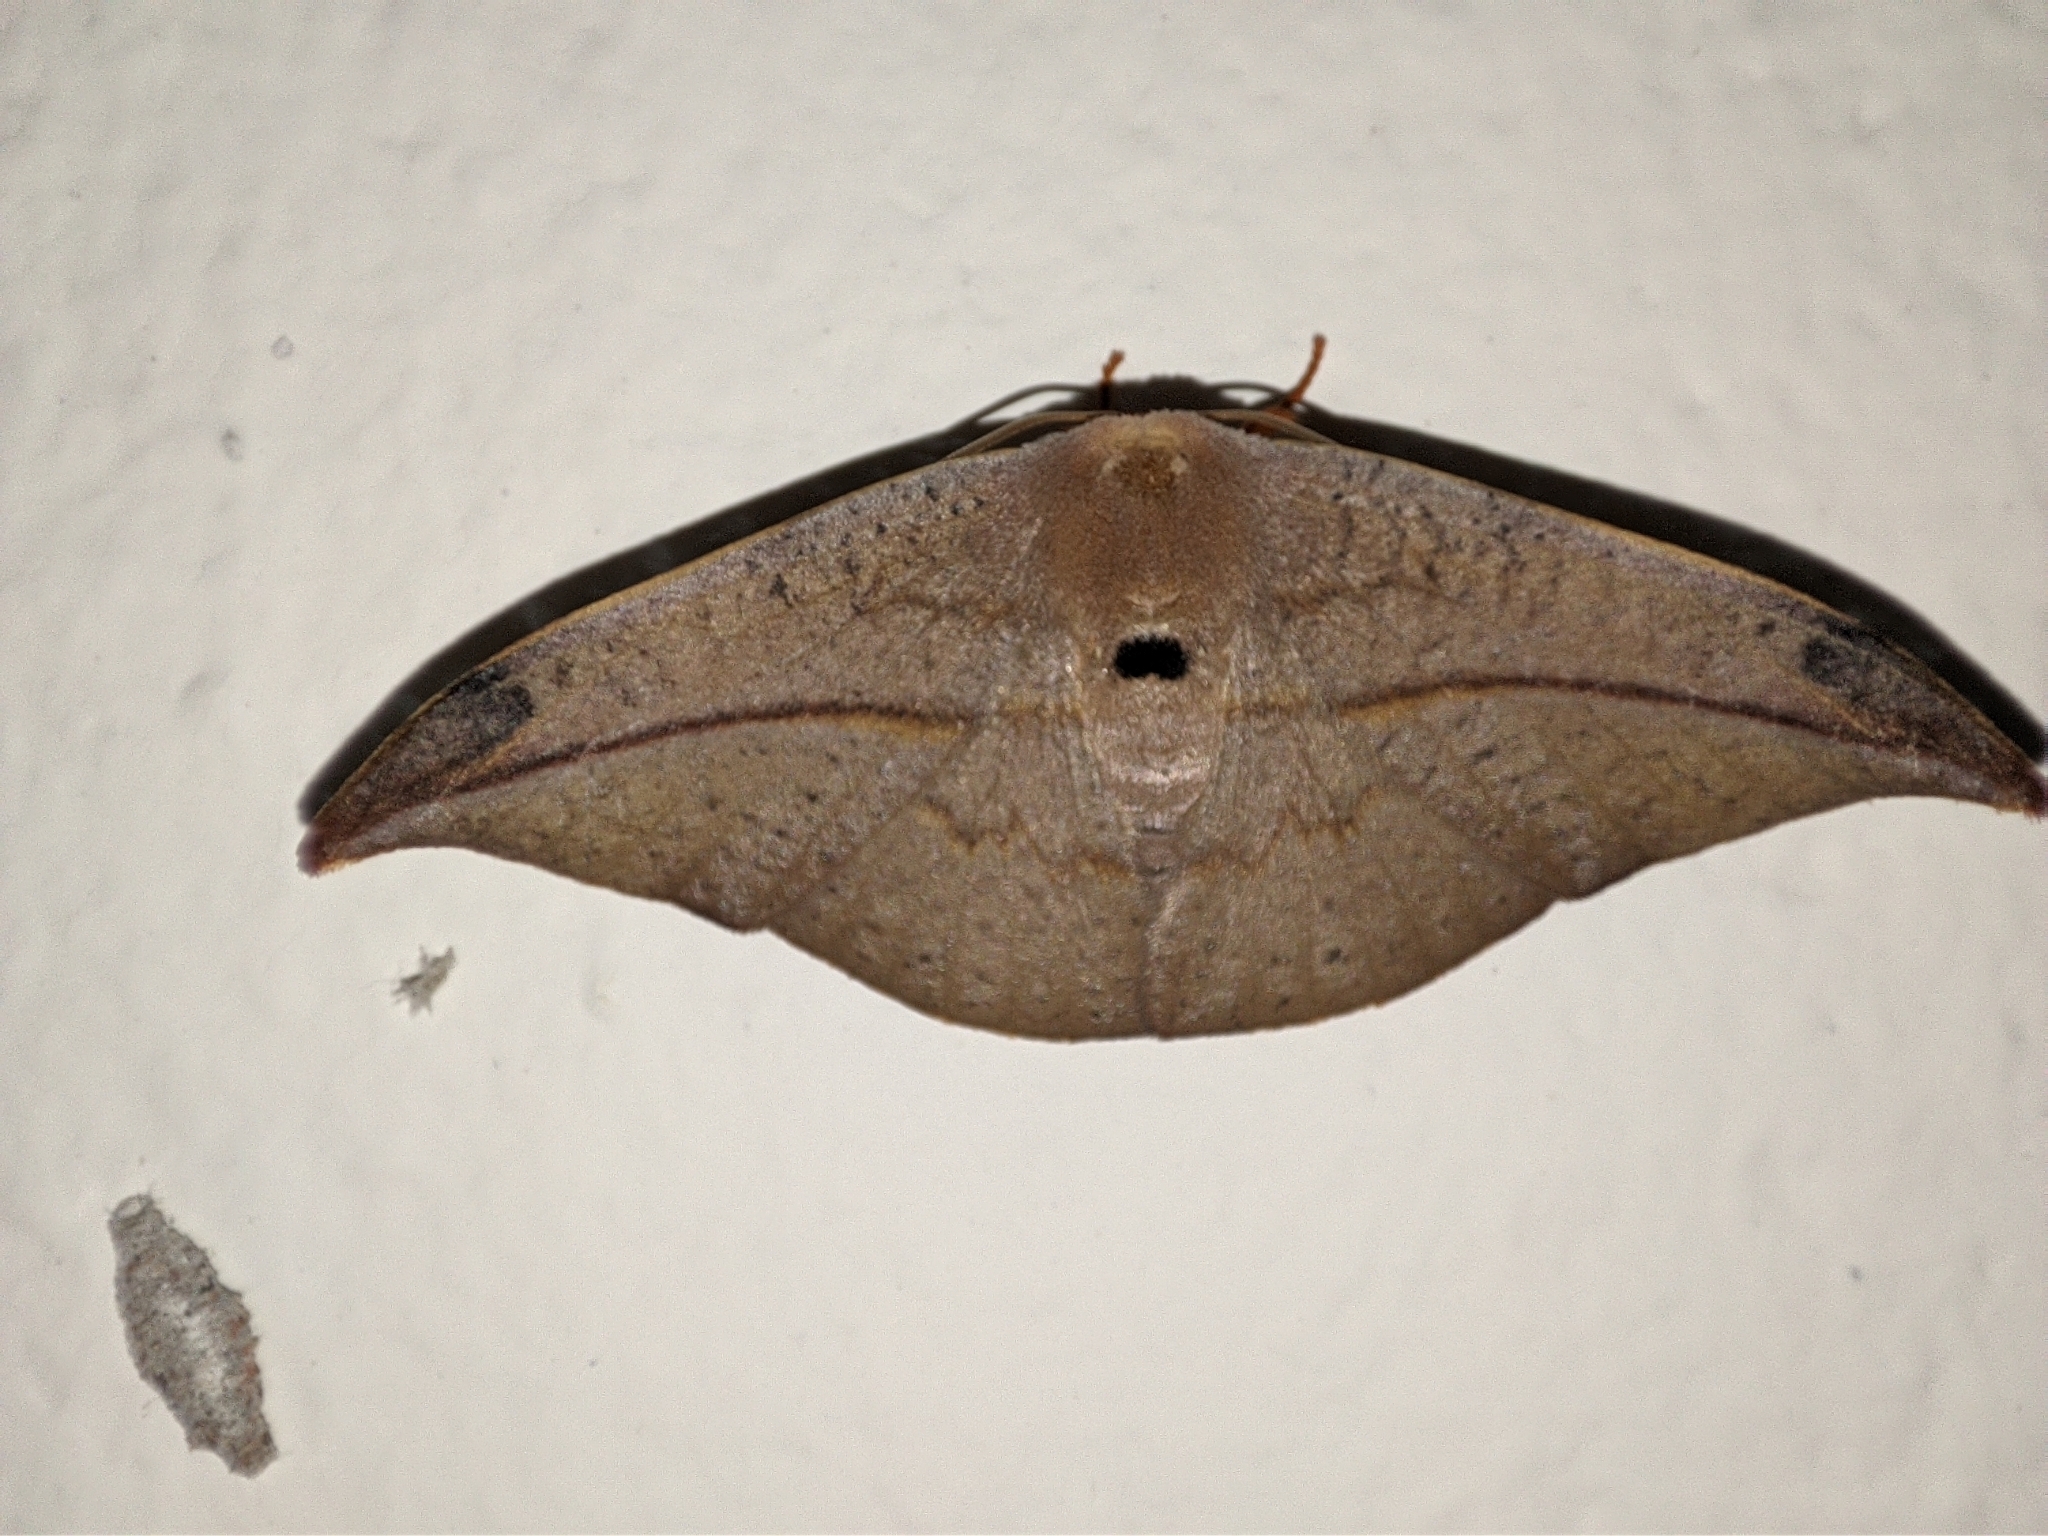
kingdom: Animalia
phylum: Arthropoda
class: Insecta
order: Lepidoptera
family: Drepanidae
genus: Oreta
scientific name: Oreta insignis
